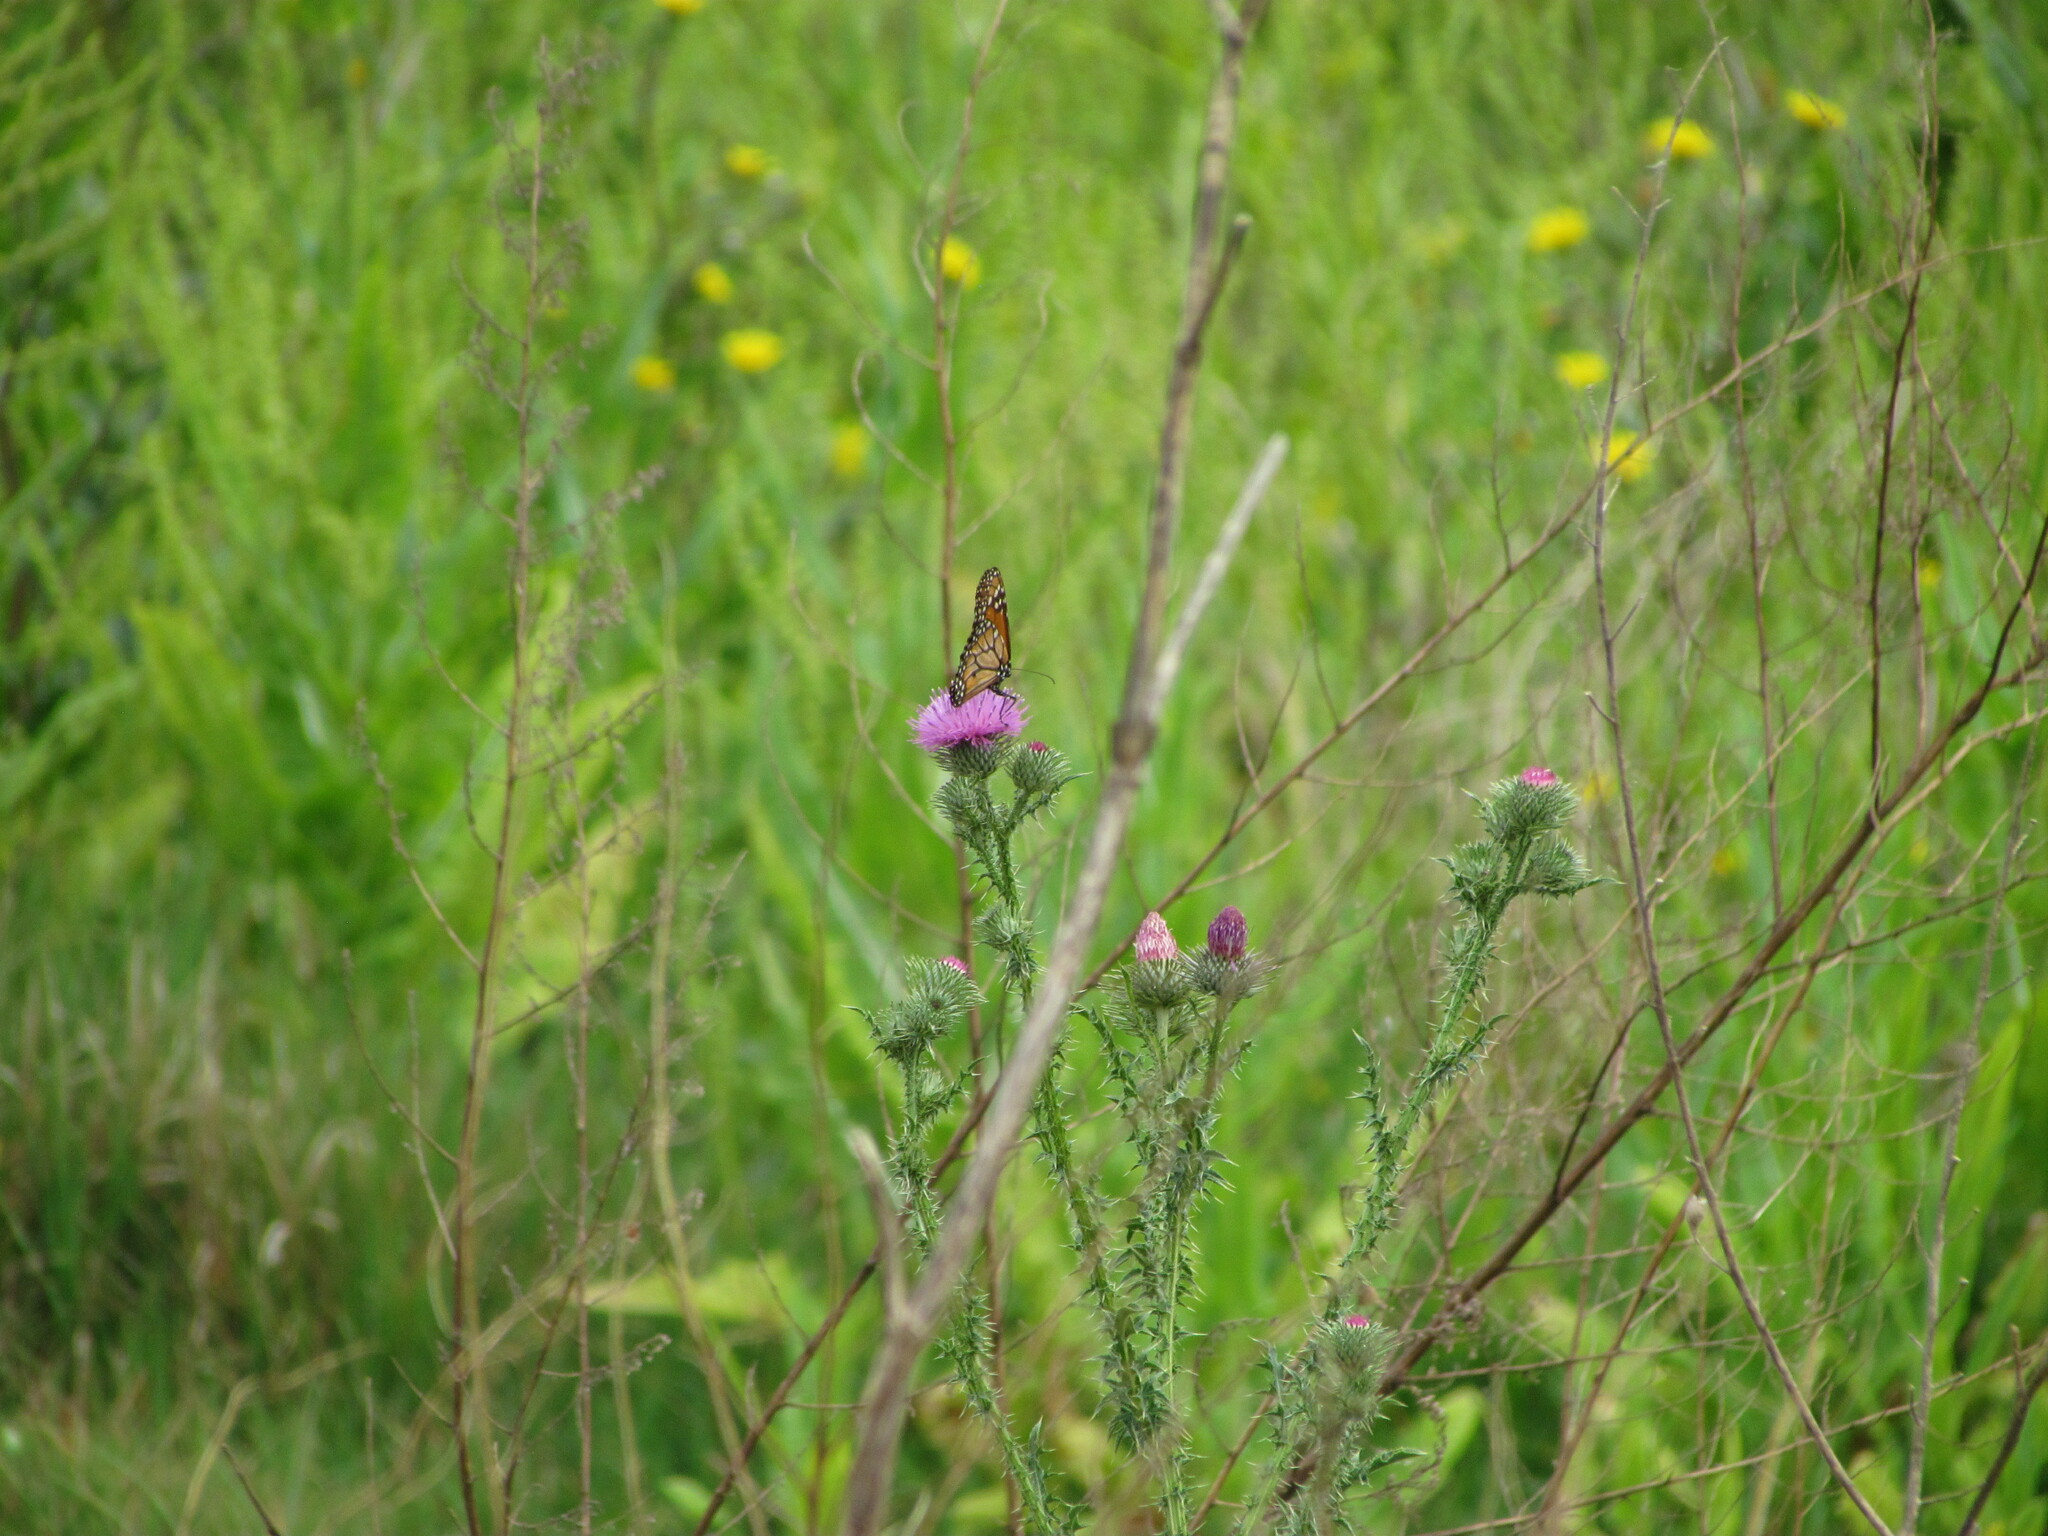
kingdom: Animalia
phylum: Arthropoda
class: Insecta
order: Lepidoptera
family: Nymphalidae
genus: Danaus
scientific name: Danaus erippus
